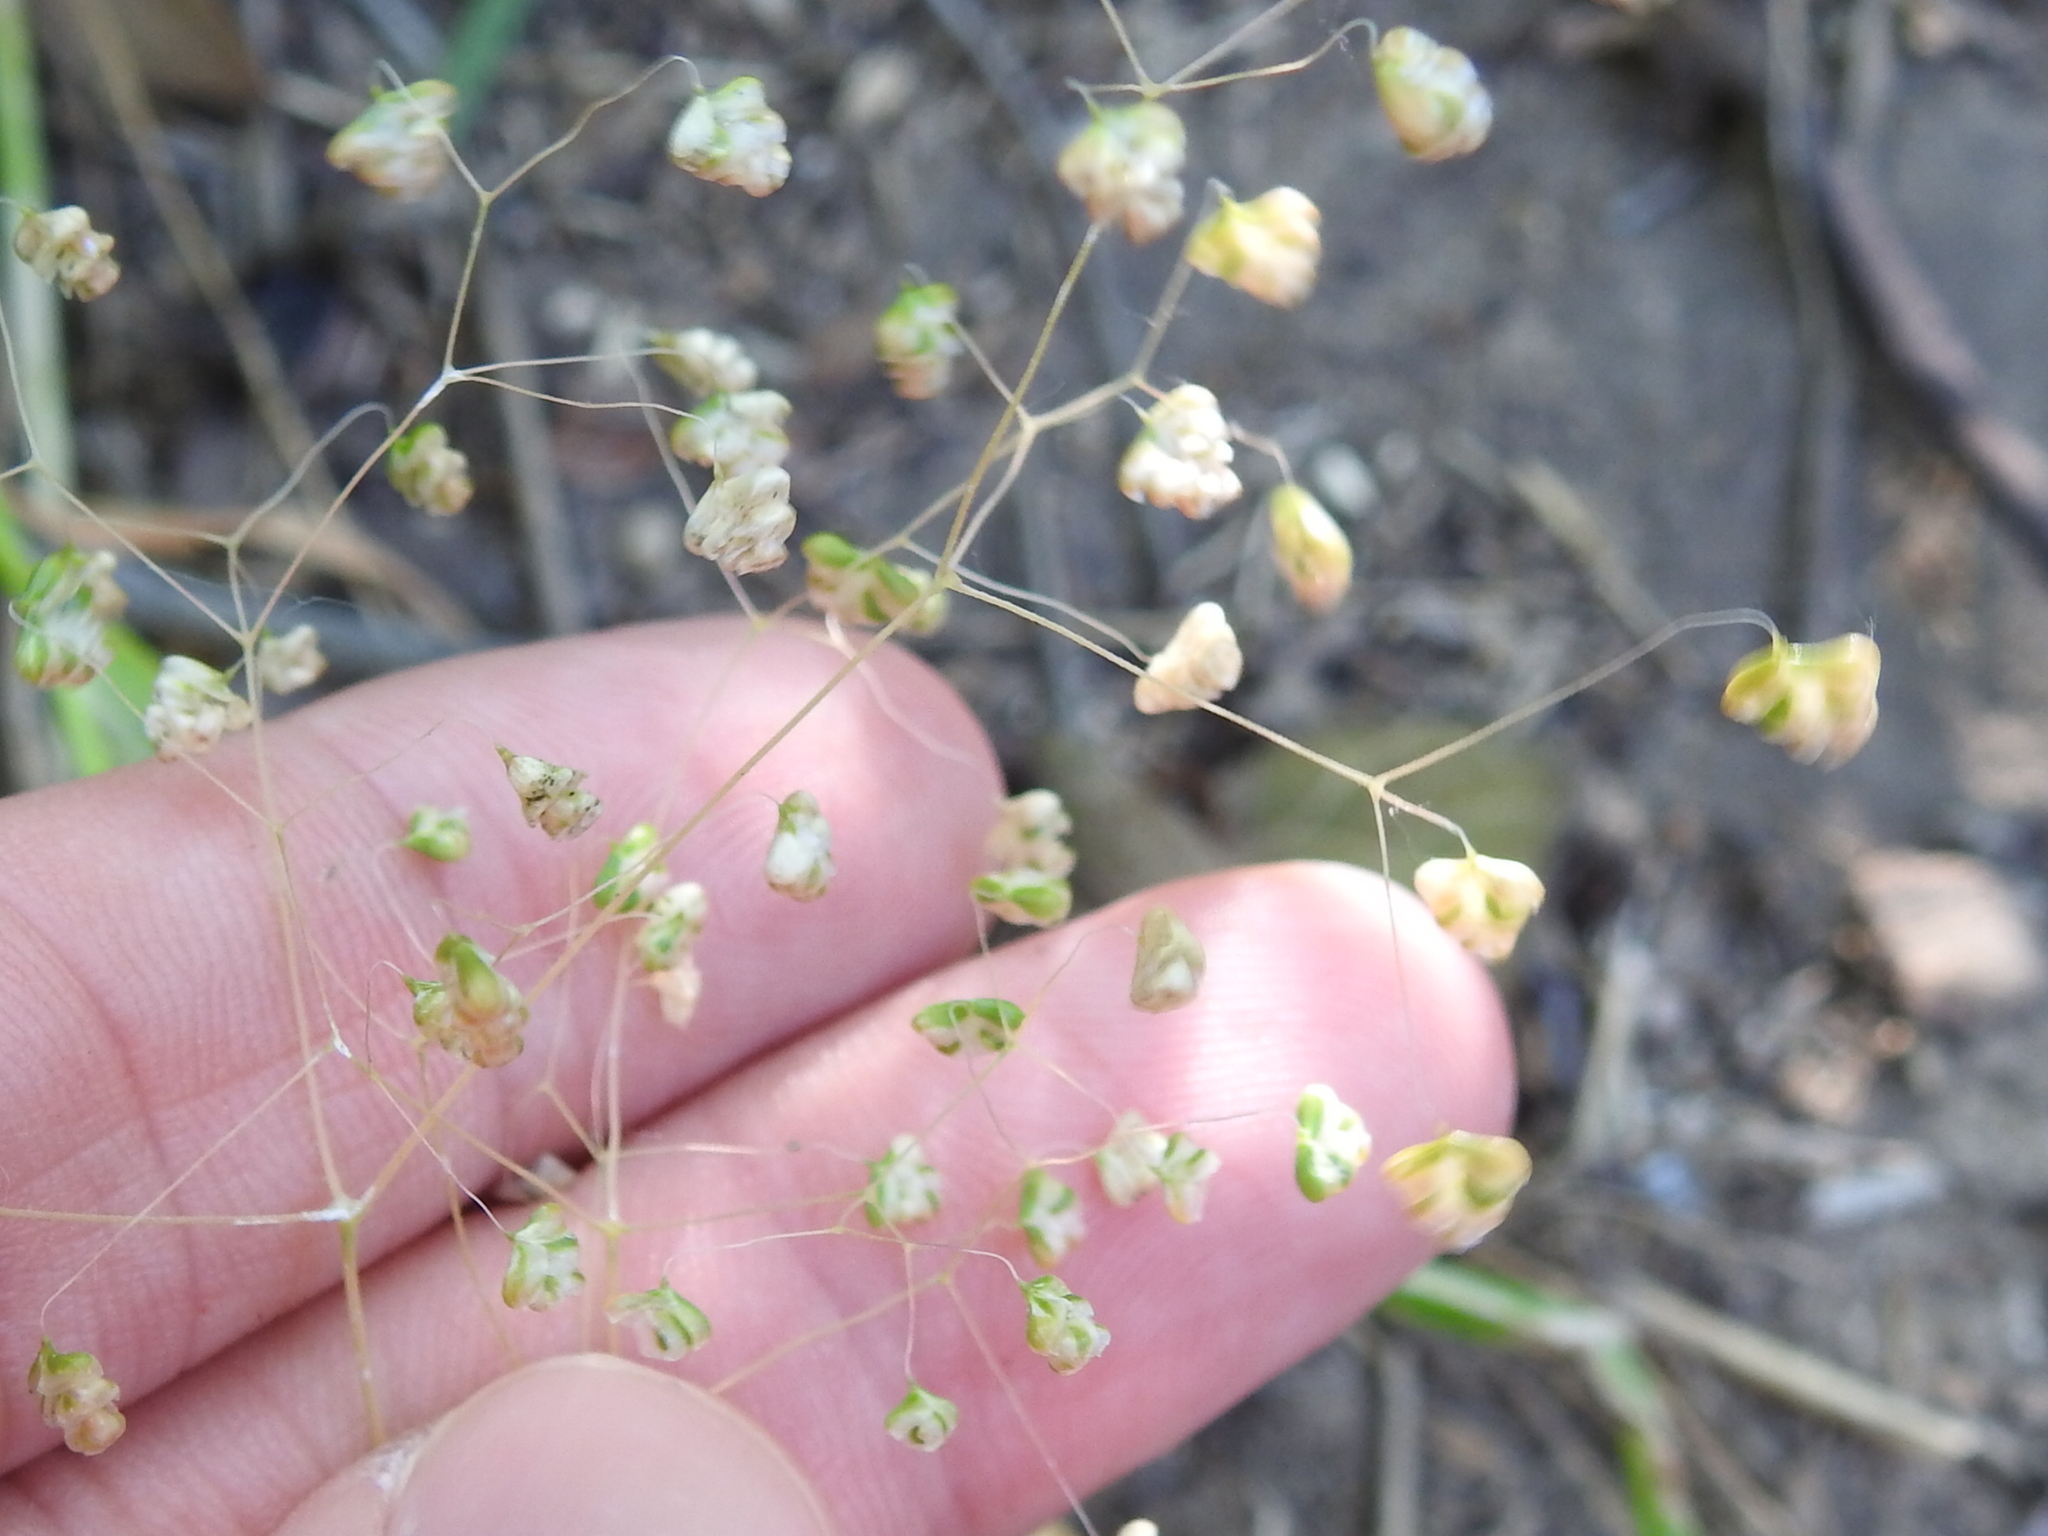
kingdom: Plantae
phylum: Tracheophyta
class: Liliopsida
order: Poales
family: Poaceae
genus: Briza
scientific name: Briza minor
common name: Lesser quaking-grass
